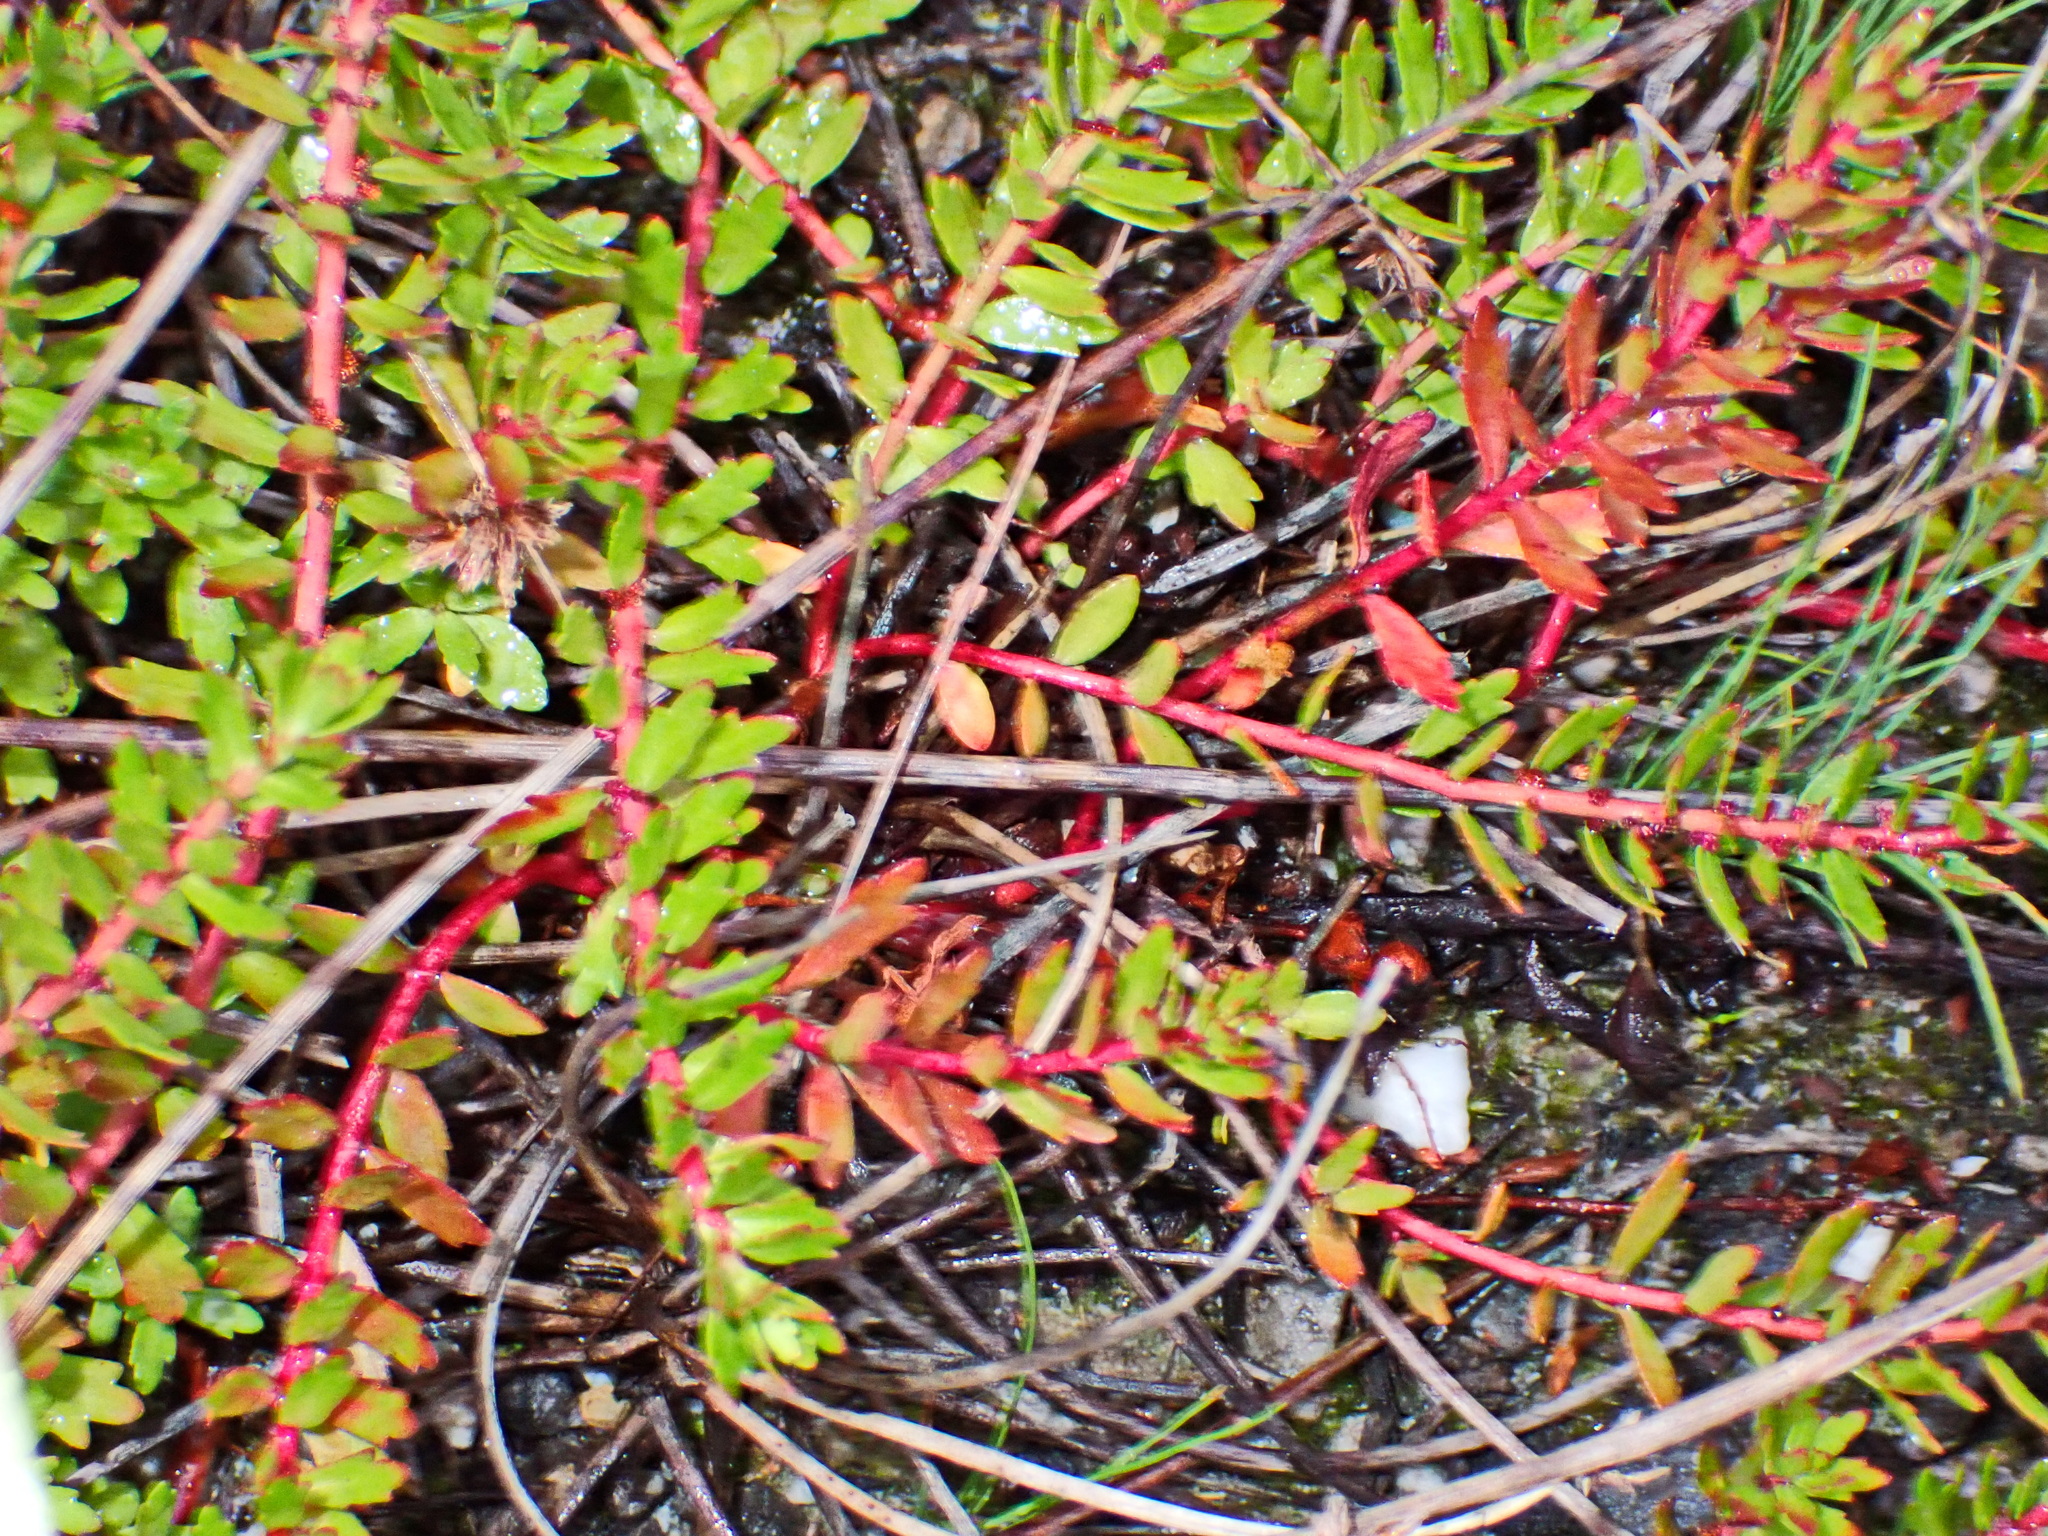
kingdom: Plantae
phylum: Tracheophyta
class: Magnoliopsida
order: Saxifragales
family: Haloragaceae
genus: Laurembergia
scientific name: Laurembergia repens
